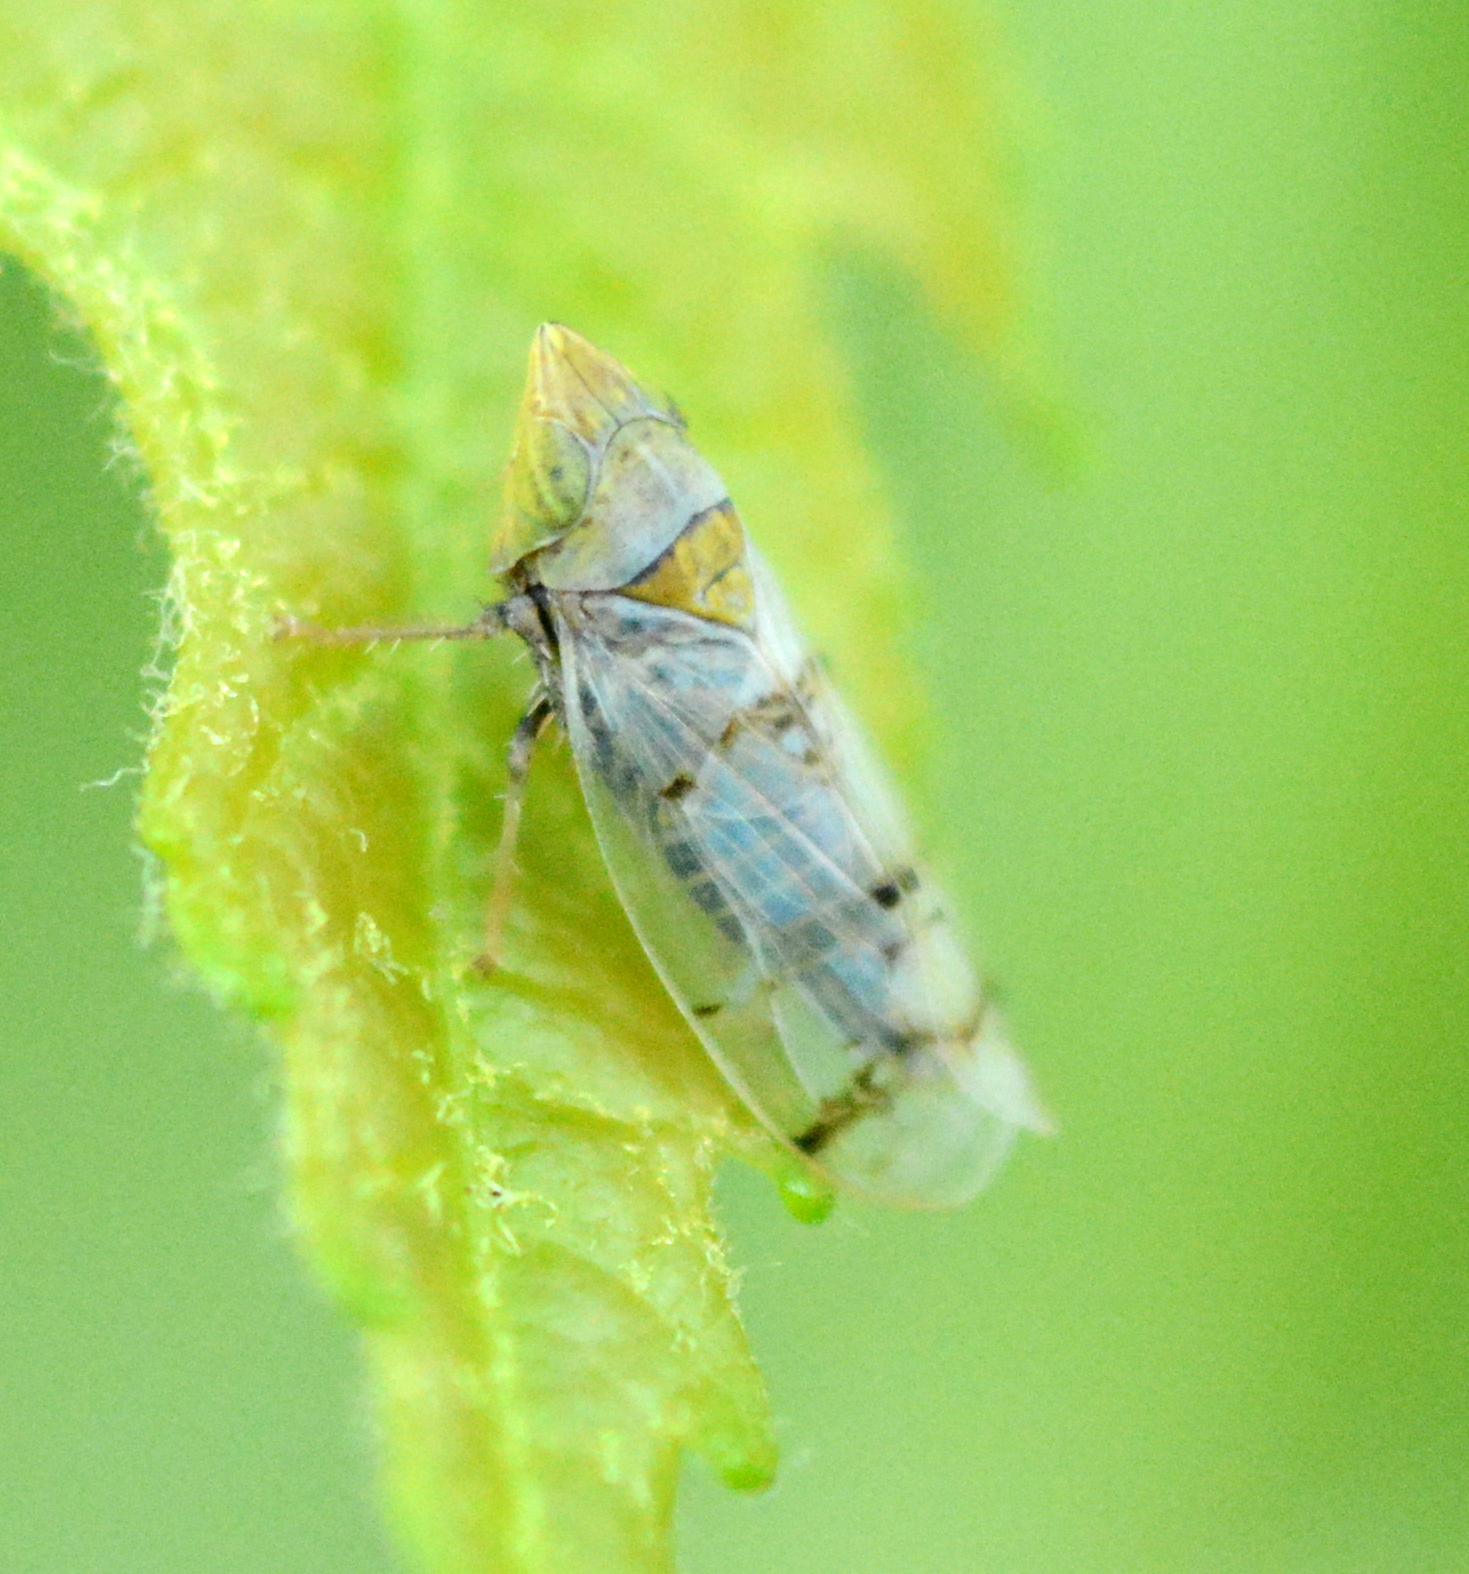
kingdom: Animalia
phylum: Arthropoda
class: Insecta
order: Hemiptera
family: Cicadellidae
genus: Japananus
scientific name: Japananus hyalinus
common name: The japanese maple leafhopper
